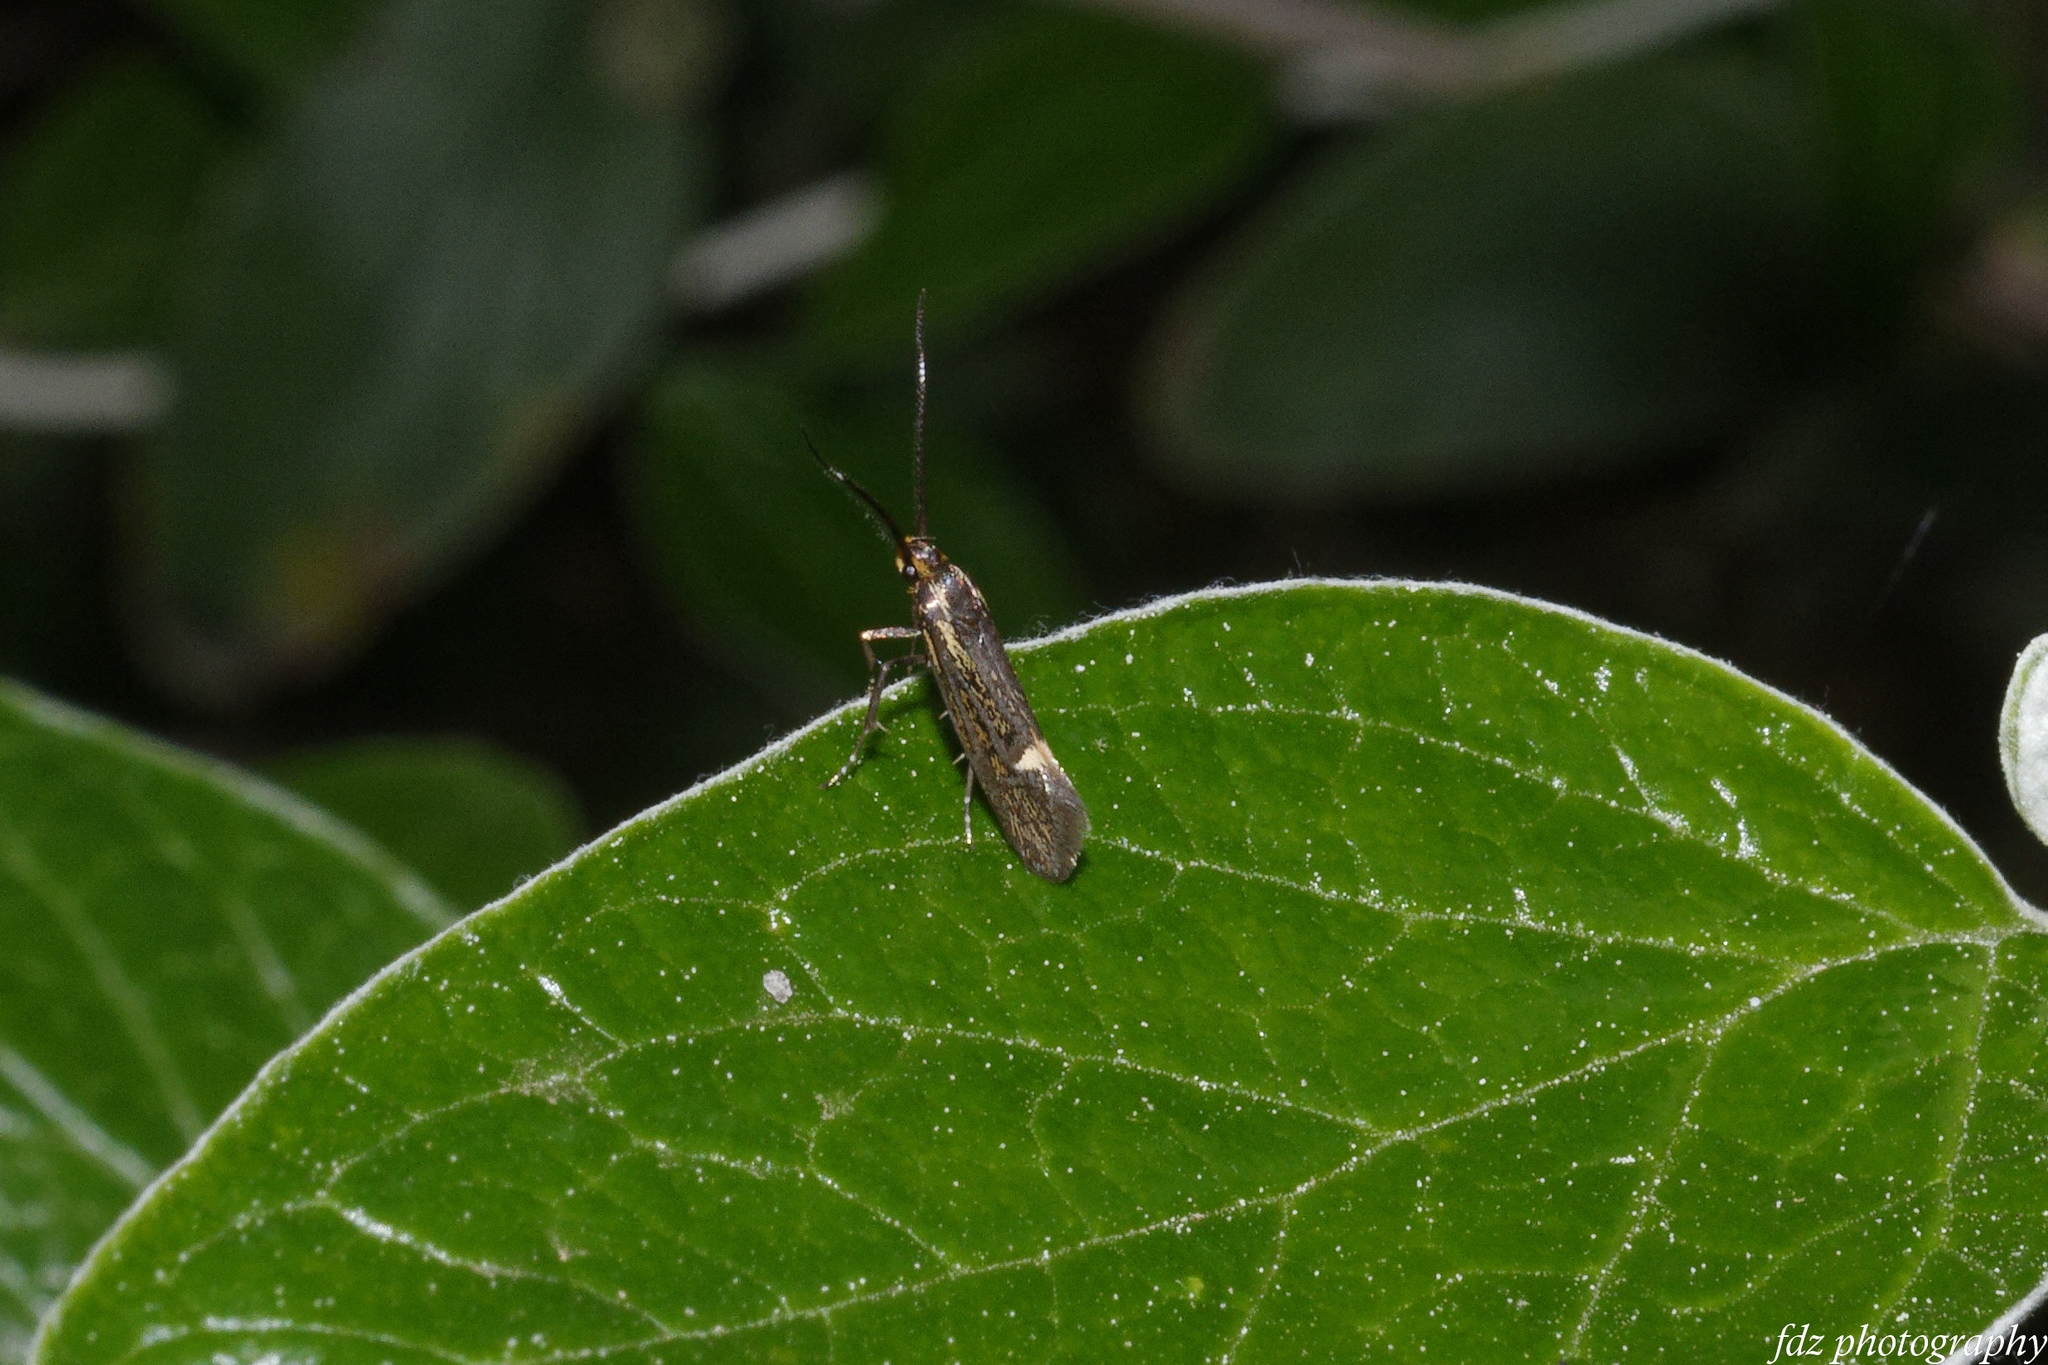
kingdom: Animalia
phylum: Arthropoda
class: Insecta
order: Lepidoptera
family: Oecophoridae
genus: Dafa
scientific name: Dafa Esperia sulphurella
